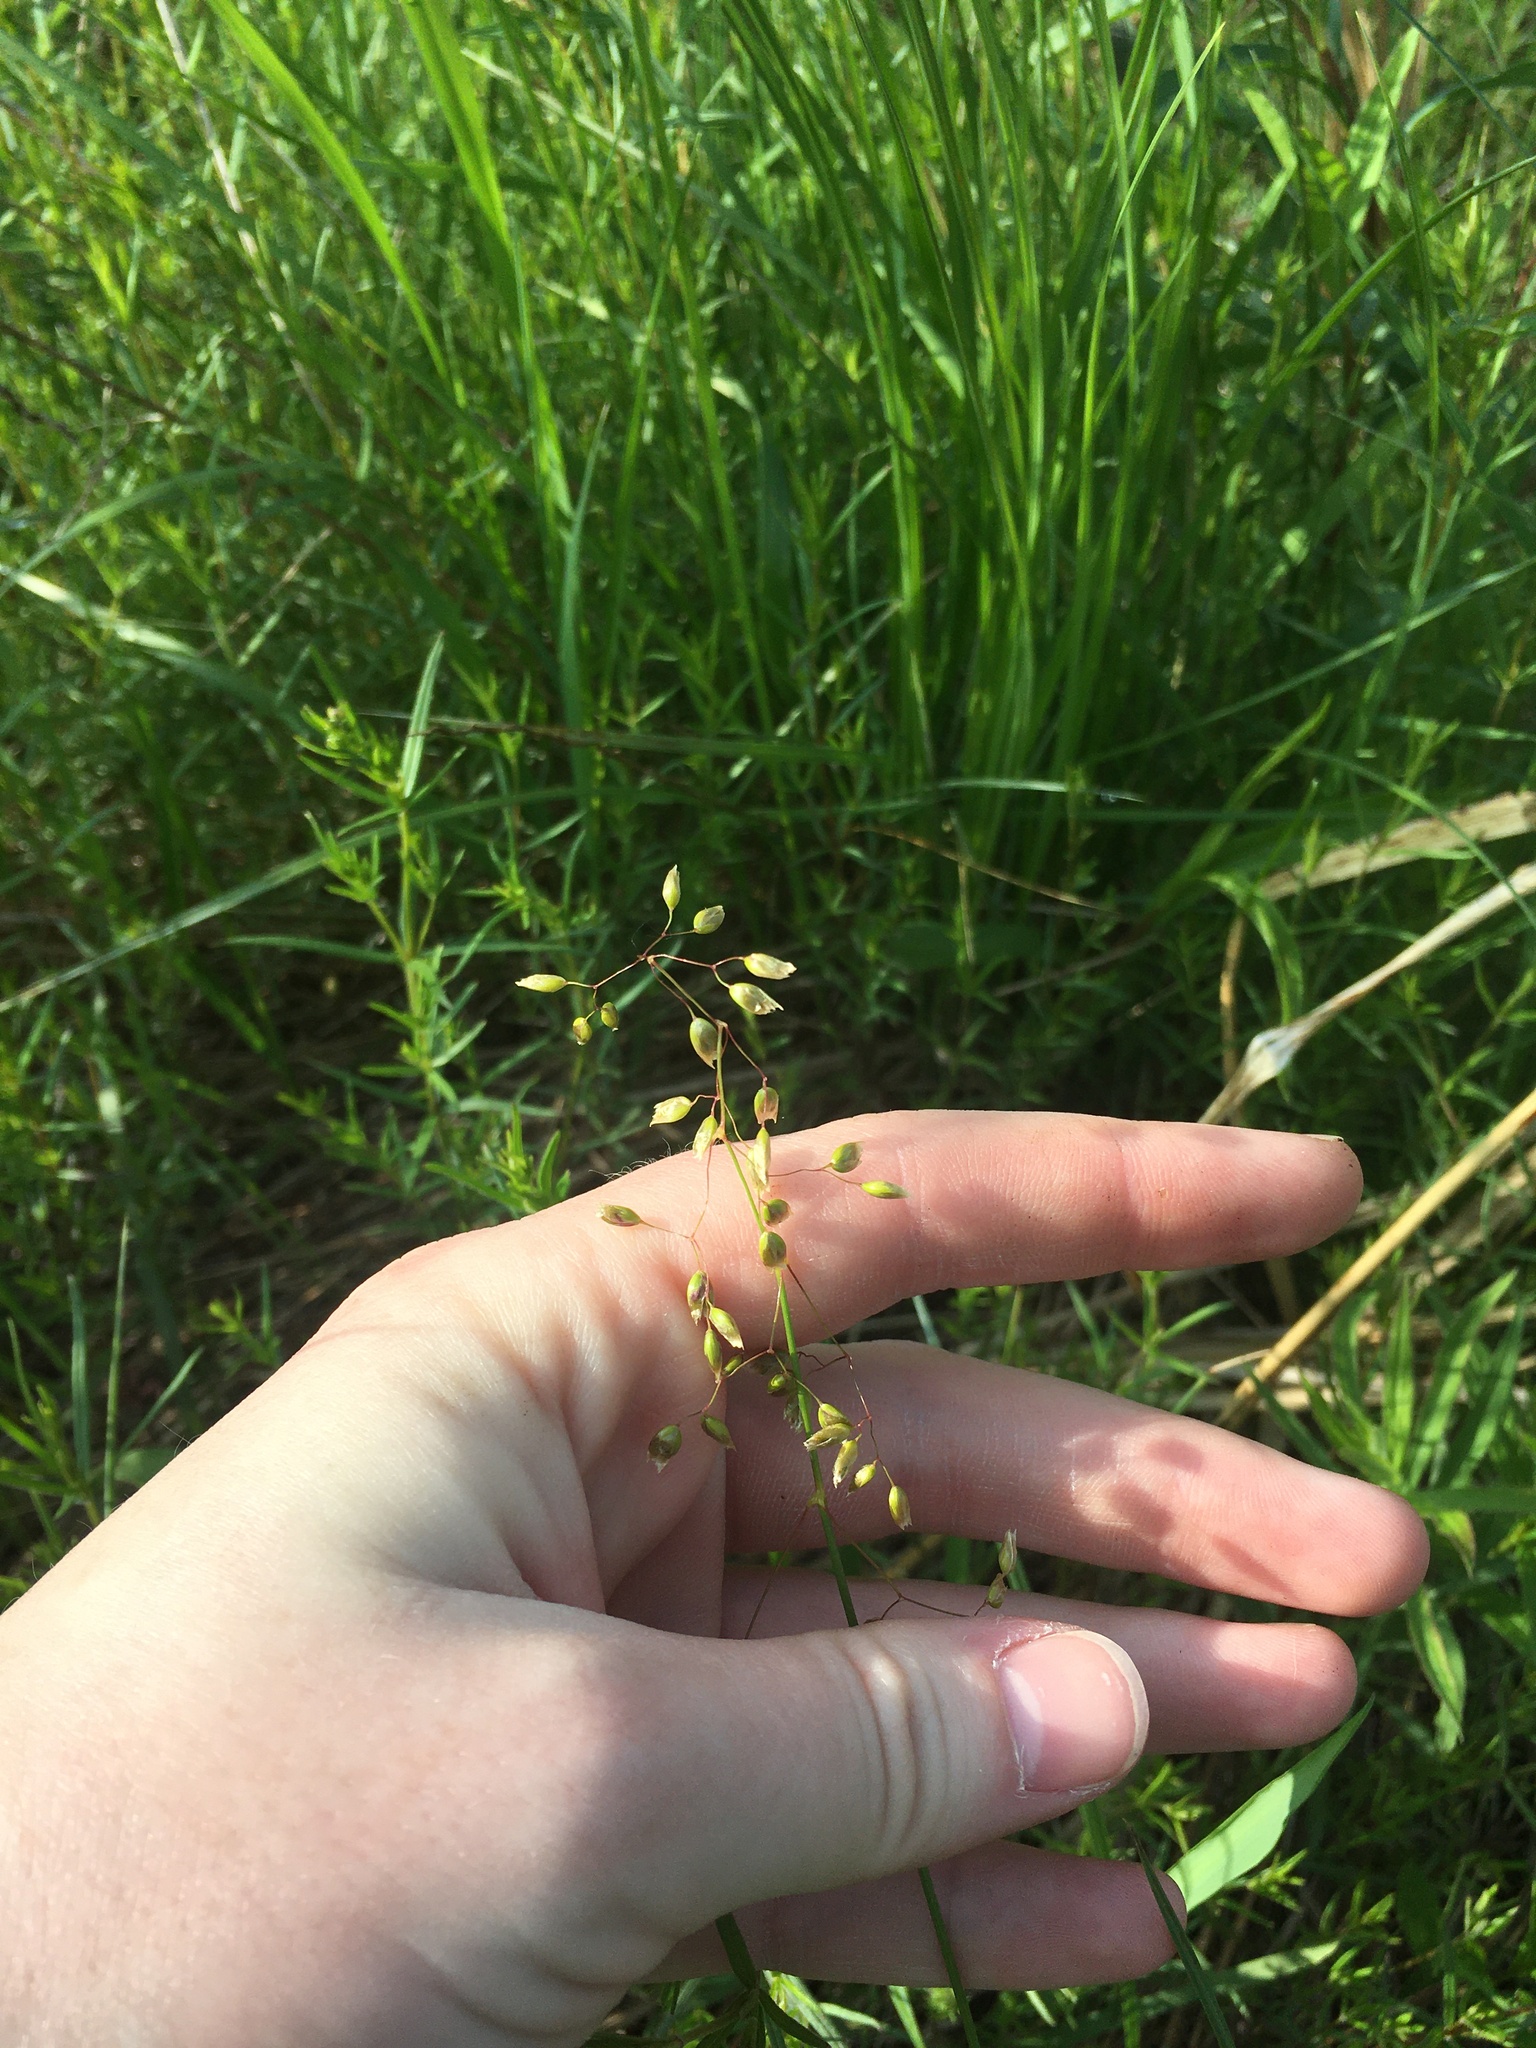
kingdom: Plantae
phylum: Tracheophyta
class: Liliopsida
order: Poales
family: Poaceae
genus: Anthoxanthum
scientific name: Anthoxanthum nitens
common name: Holy grass
